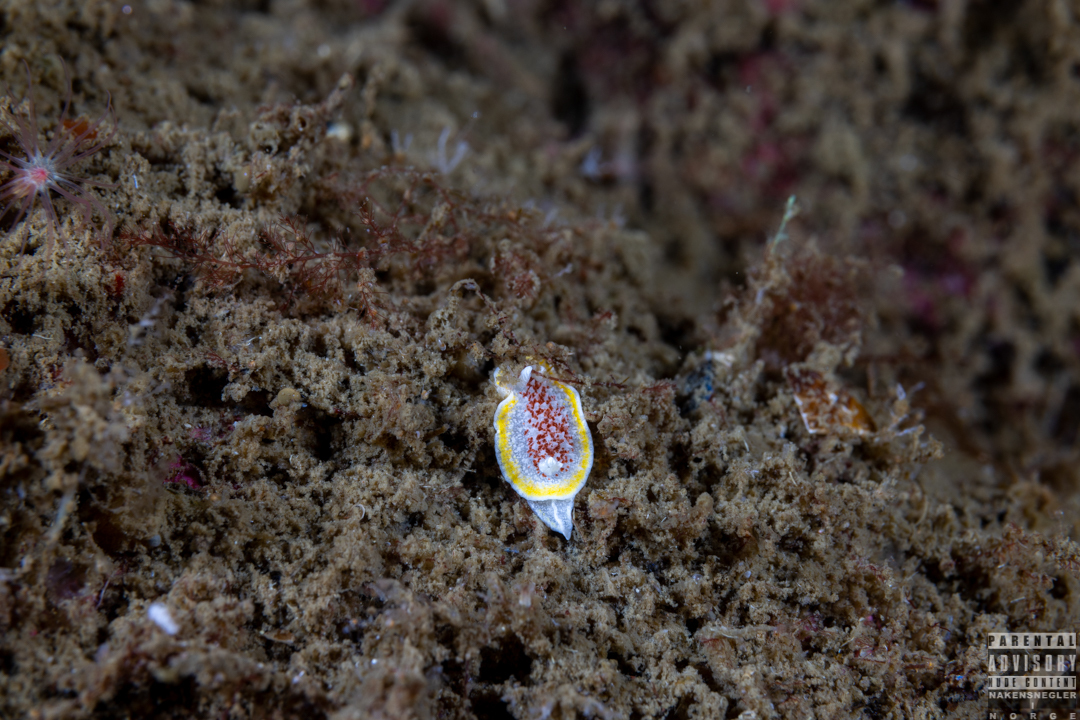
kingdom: Animalia
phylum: Mollusca
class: Gastropoda
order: Nudibranchia
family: Calycidorididae
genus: Diaphorodoris
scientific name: Diaphorodoris luteocincta
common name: Fried egg nudibranch
